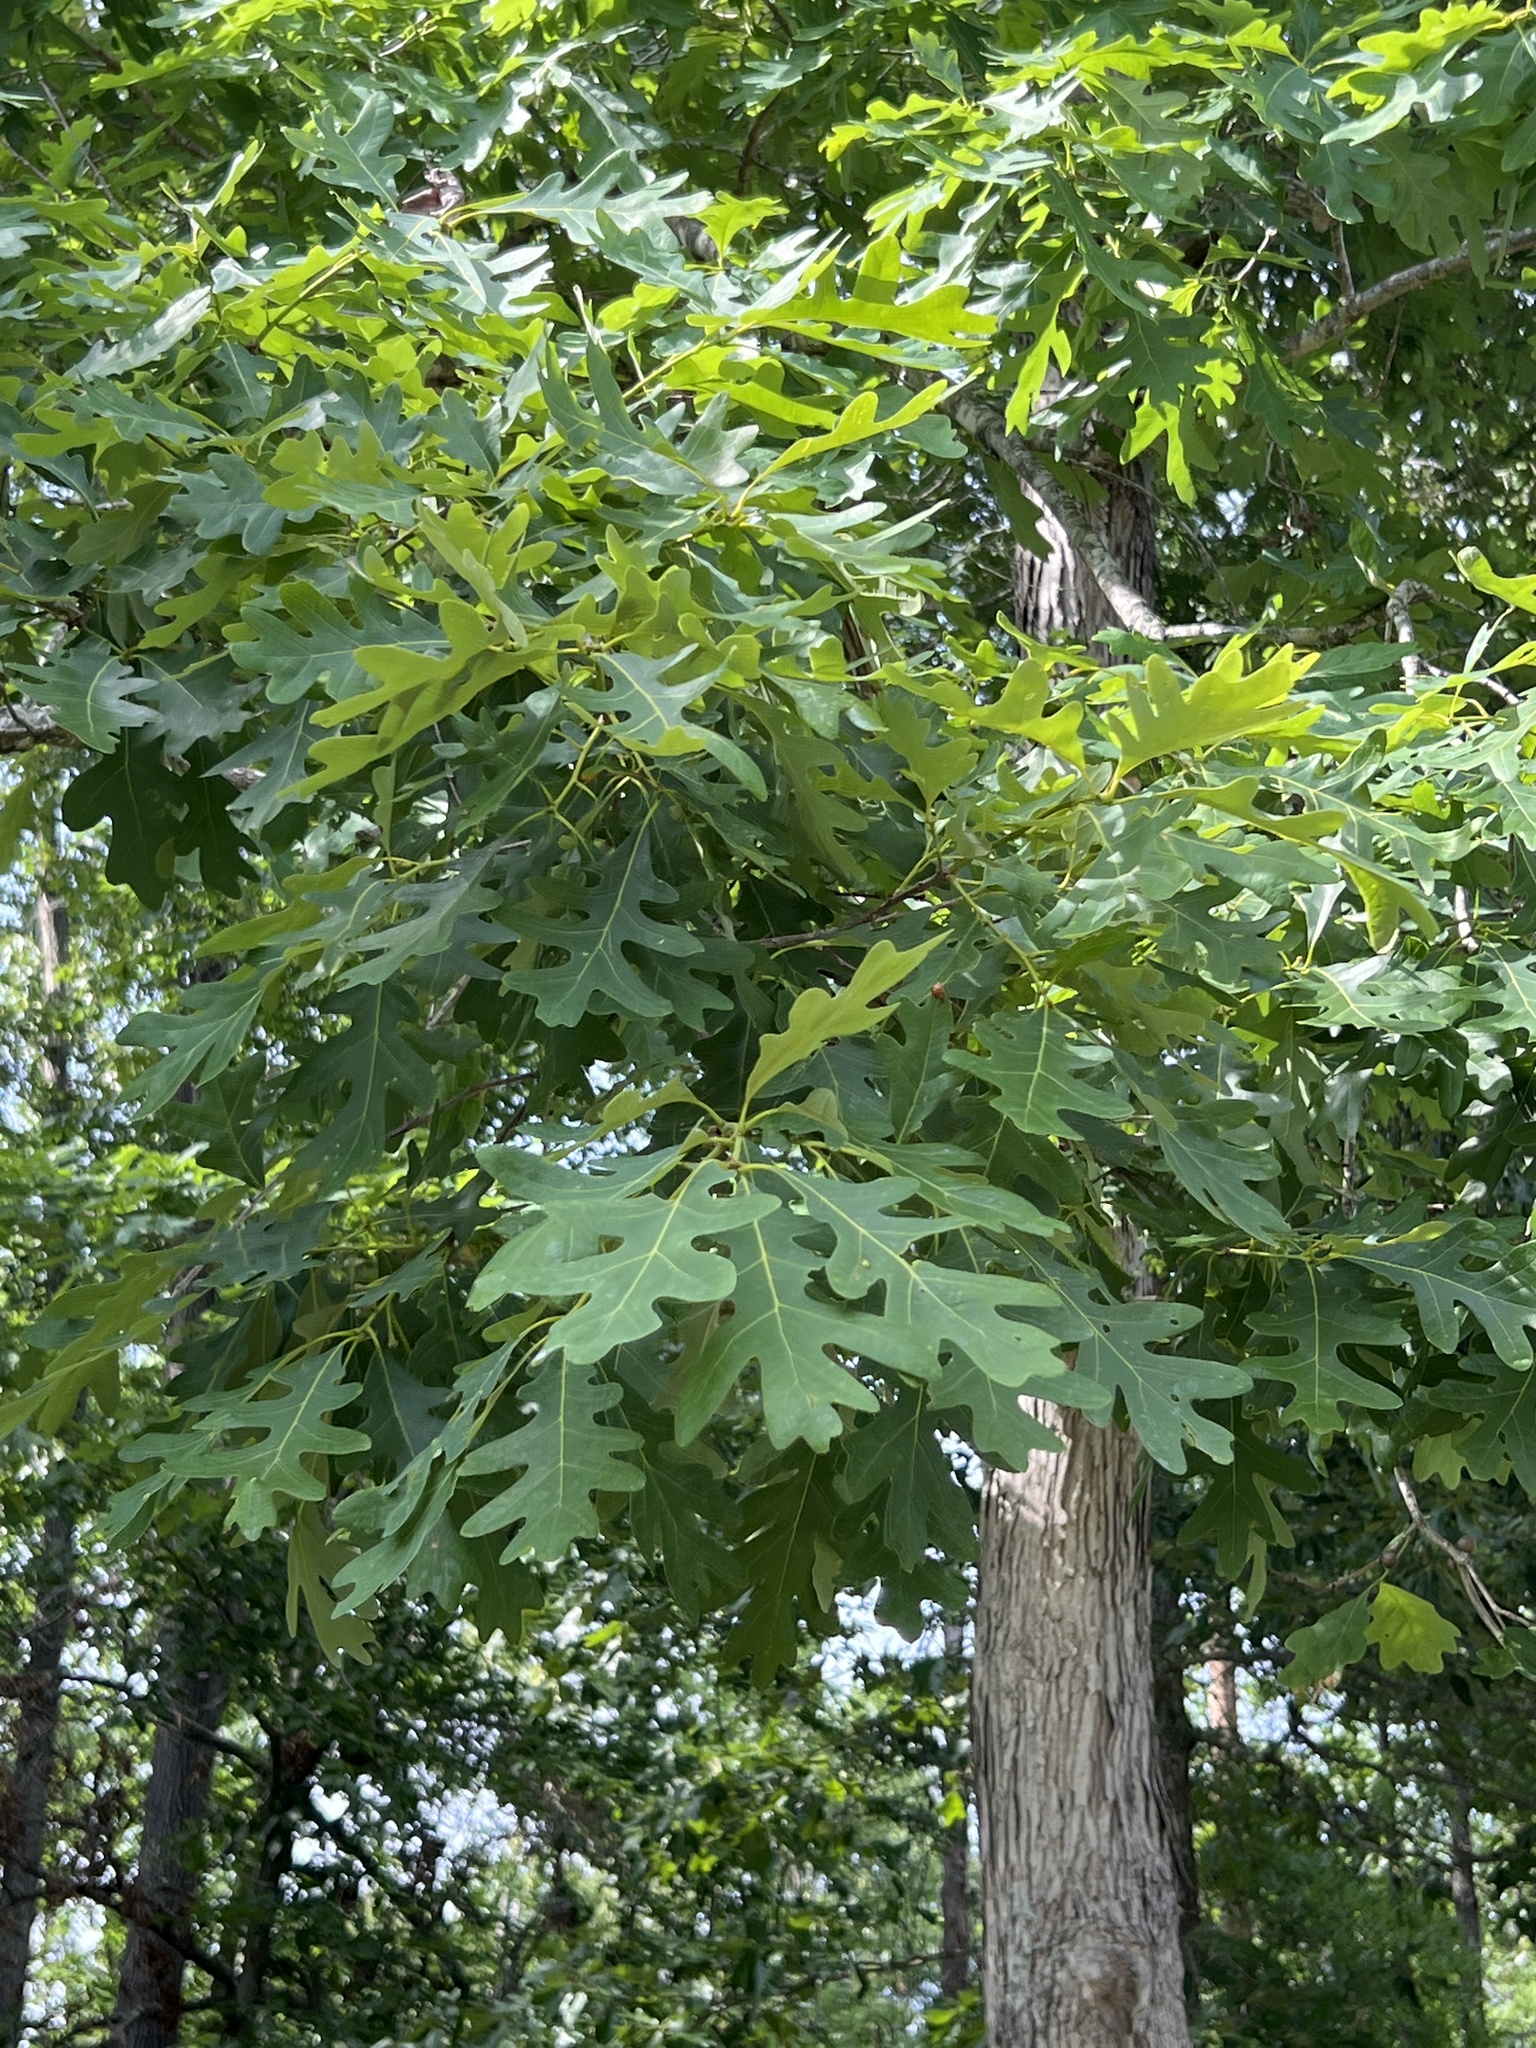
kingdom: Plantae
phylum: Tracheophyta
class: Magnoliopsida
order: Fagales
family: Fagaceae
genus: Quercus
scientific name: Quercus alba
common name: White oak
